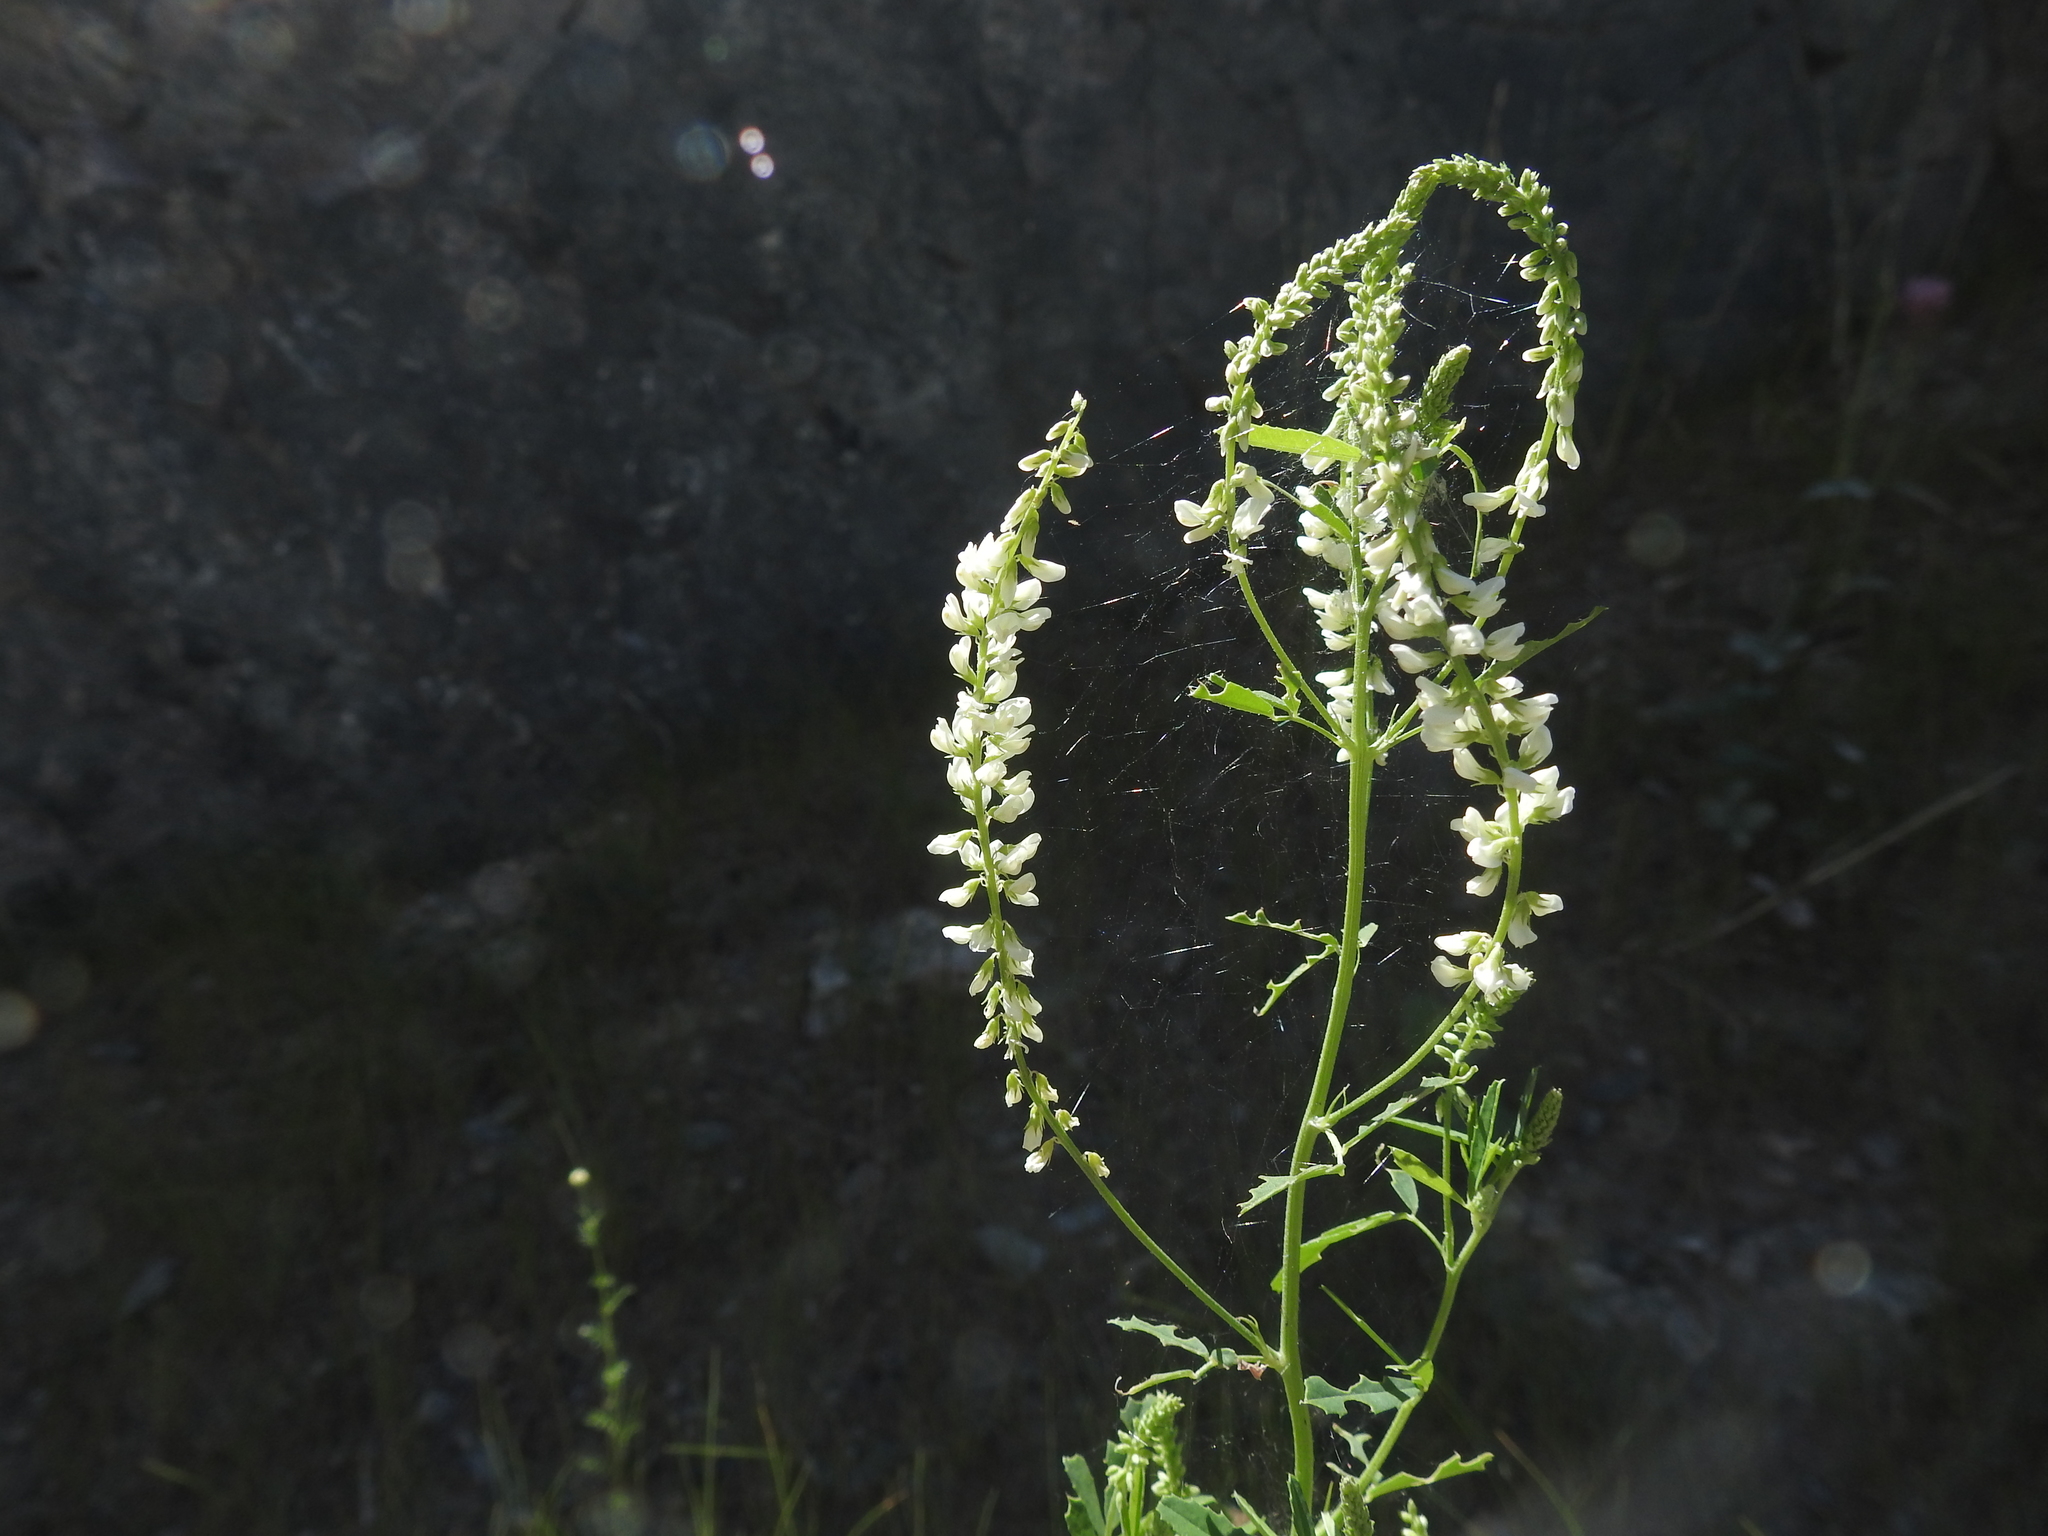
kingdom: Plantae
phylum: Tracheophyta
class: Magnoliopsida
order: Fabales
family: Fabaceae
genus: Melilotus
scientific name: Melilotus albus
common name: White melilot
